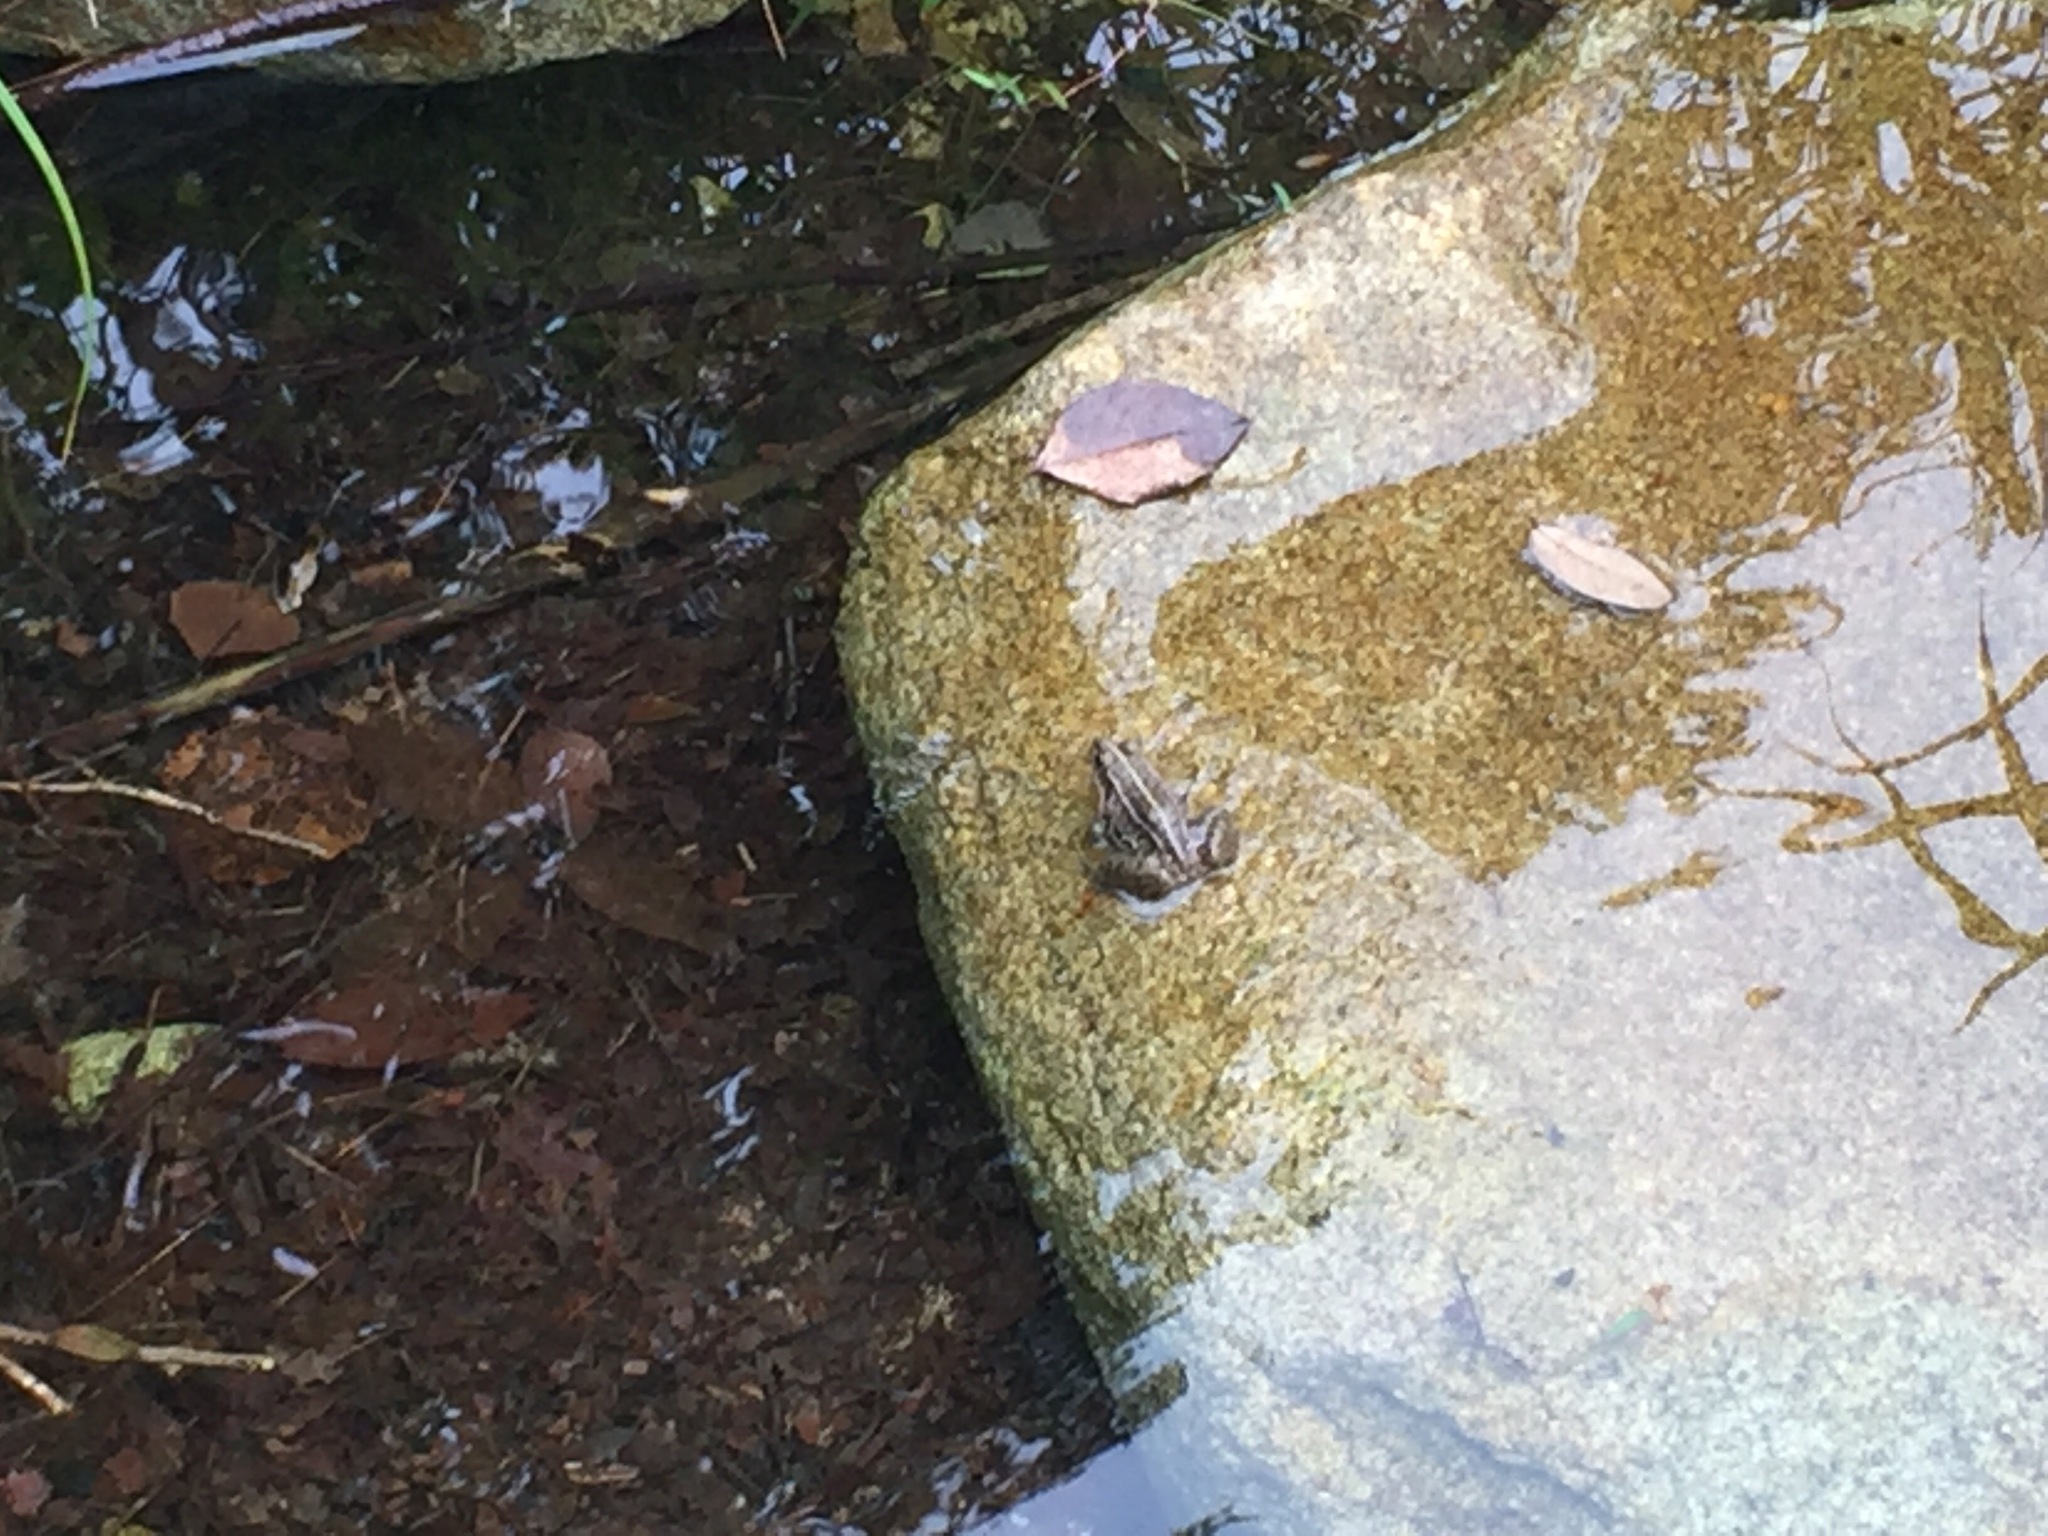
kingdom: Animalia
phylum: Chordata
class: Amphibia
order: Anura
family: Ranidae
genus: Pelophylax
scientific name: Pelophylax nigromaculatus
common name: Black-spotted pond frog
